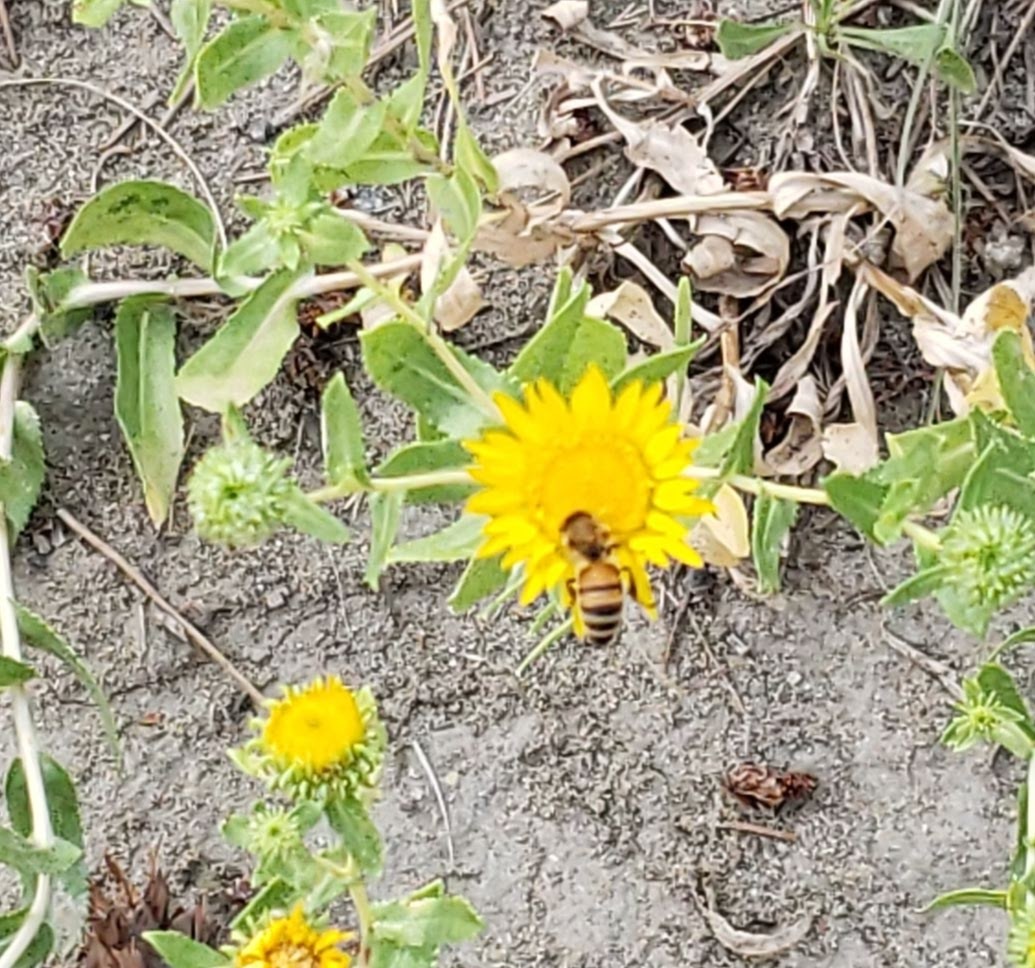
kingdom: Animalia
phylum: Arthropoda
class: Insecta
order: Hymenoptera
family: Apidae
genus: Apis
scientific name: Apis mellifera
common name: Honey bee
